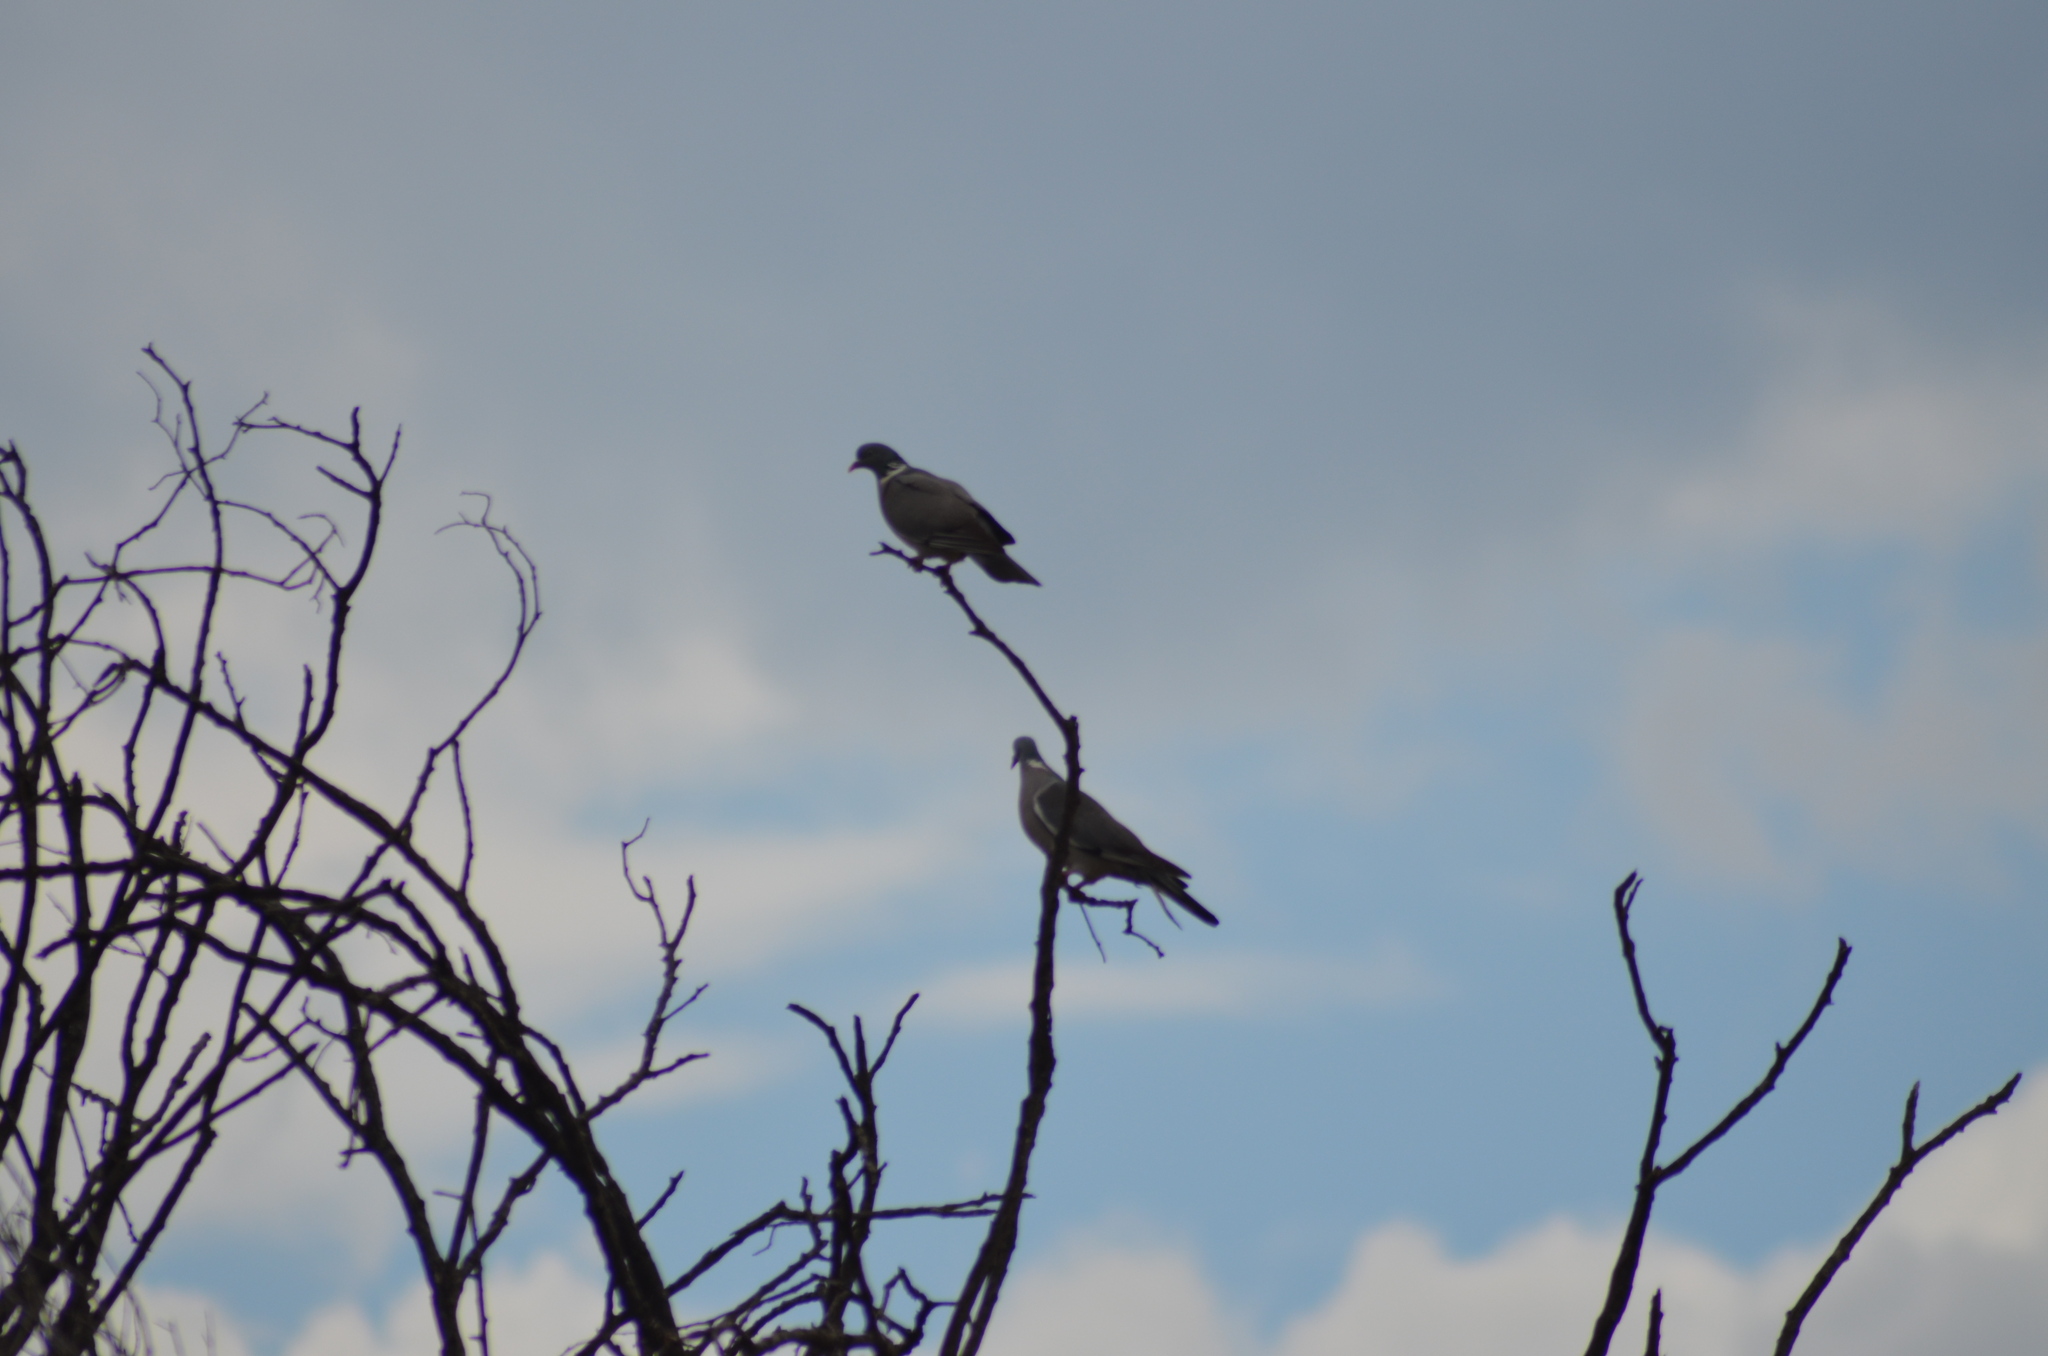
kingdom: Animalia
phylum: Chordata
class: Aves
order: Columbiformes
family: Columbidae
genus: Columba
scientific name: Columba palumbus
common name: Common wood pigeon
